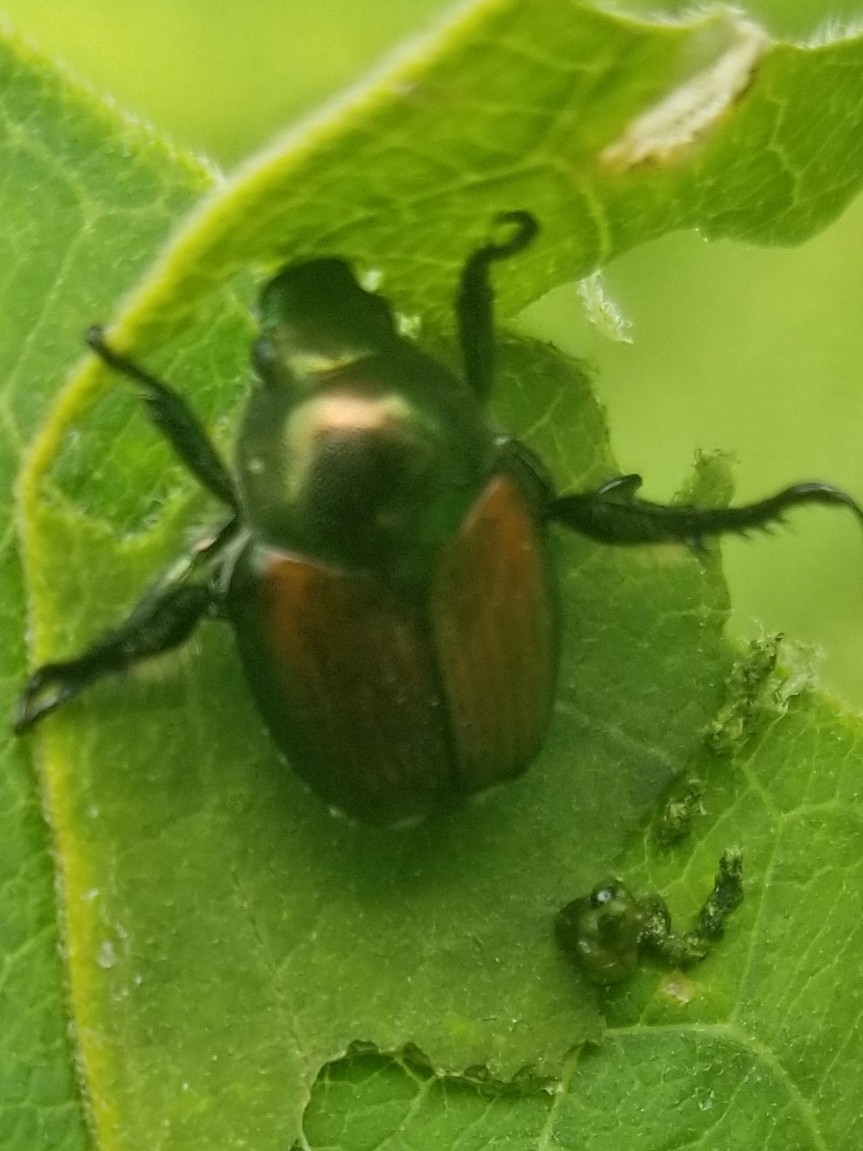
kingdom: Animalia
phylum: Arthropoda
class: Insecta
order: Coleoptera
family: Scarabaeidae
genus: Popillia
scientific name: Popillia japonica
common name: Japanese beetle
